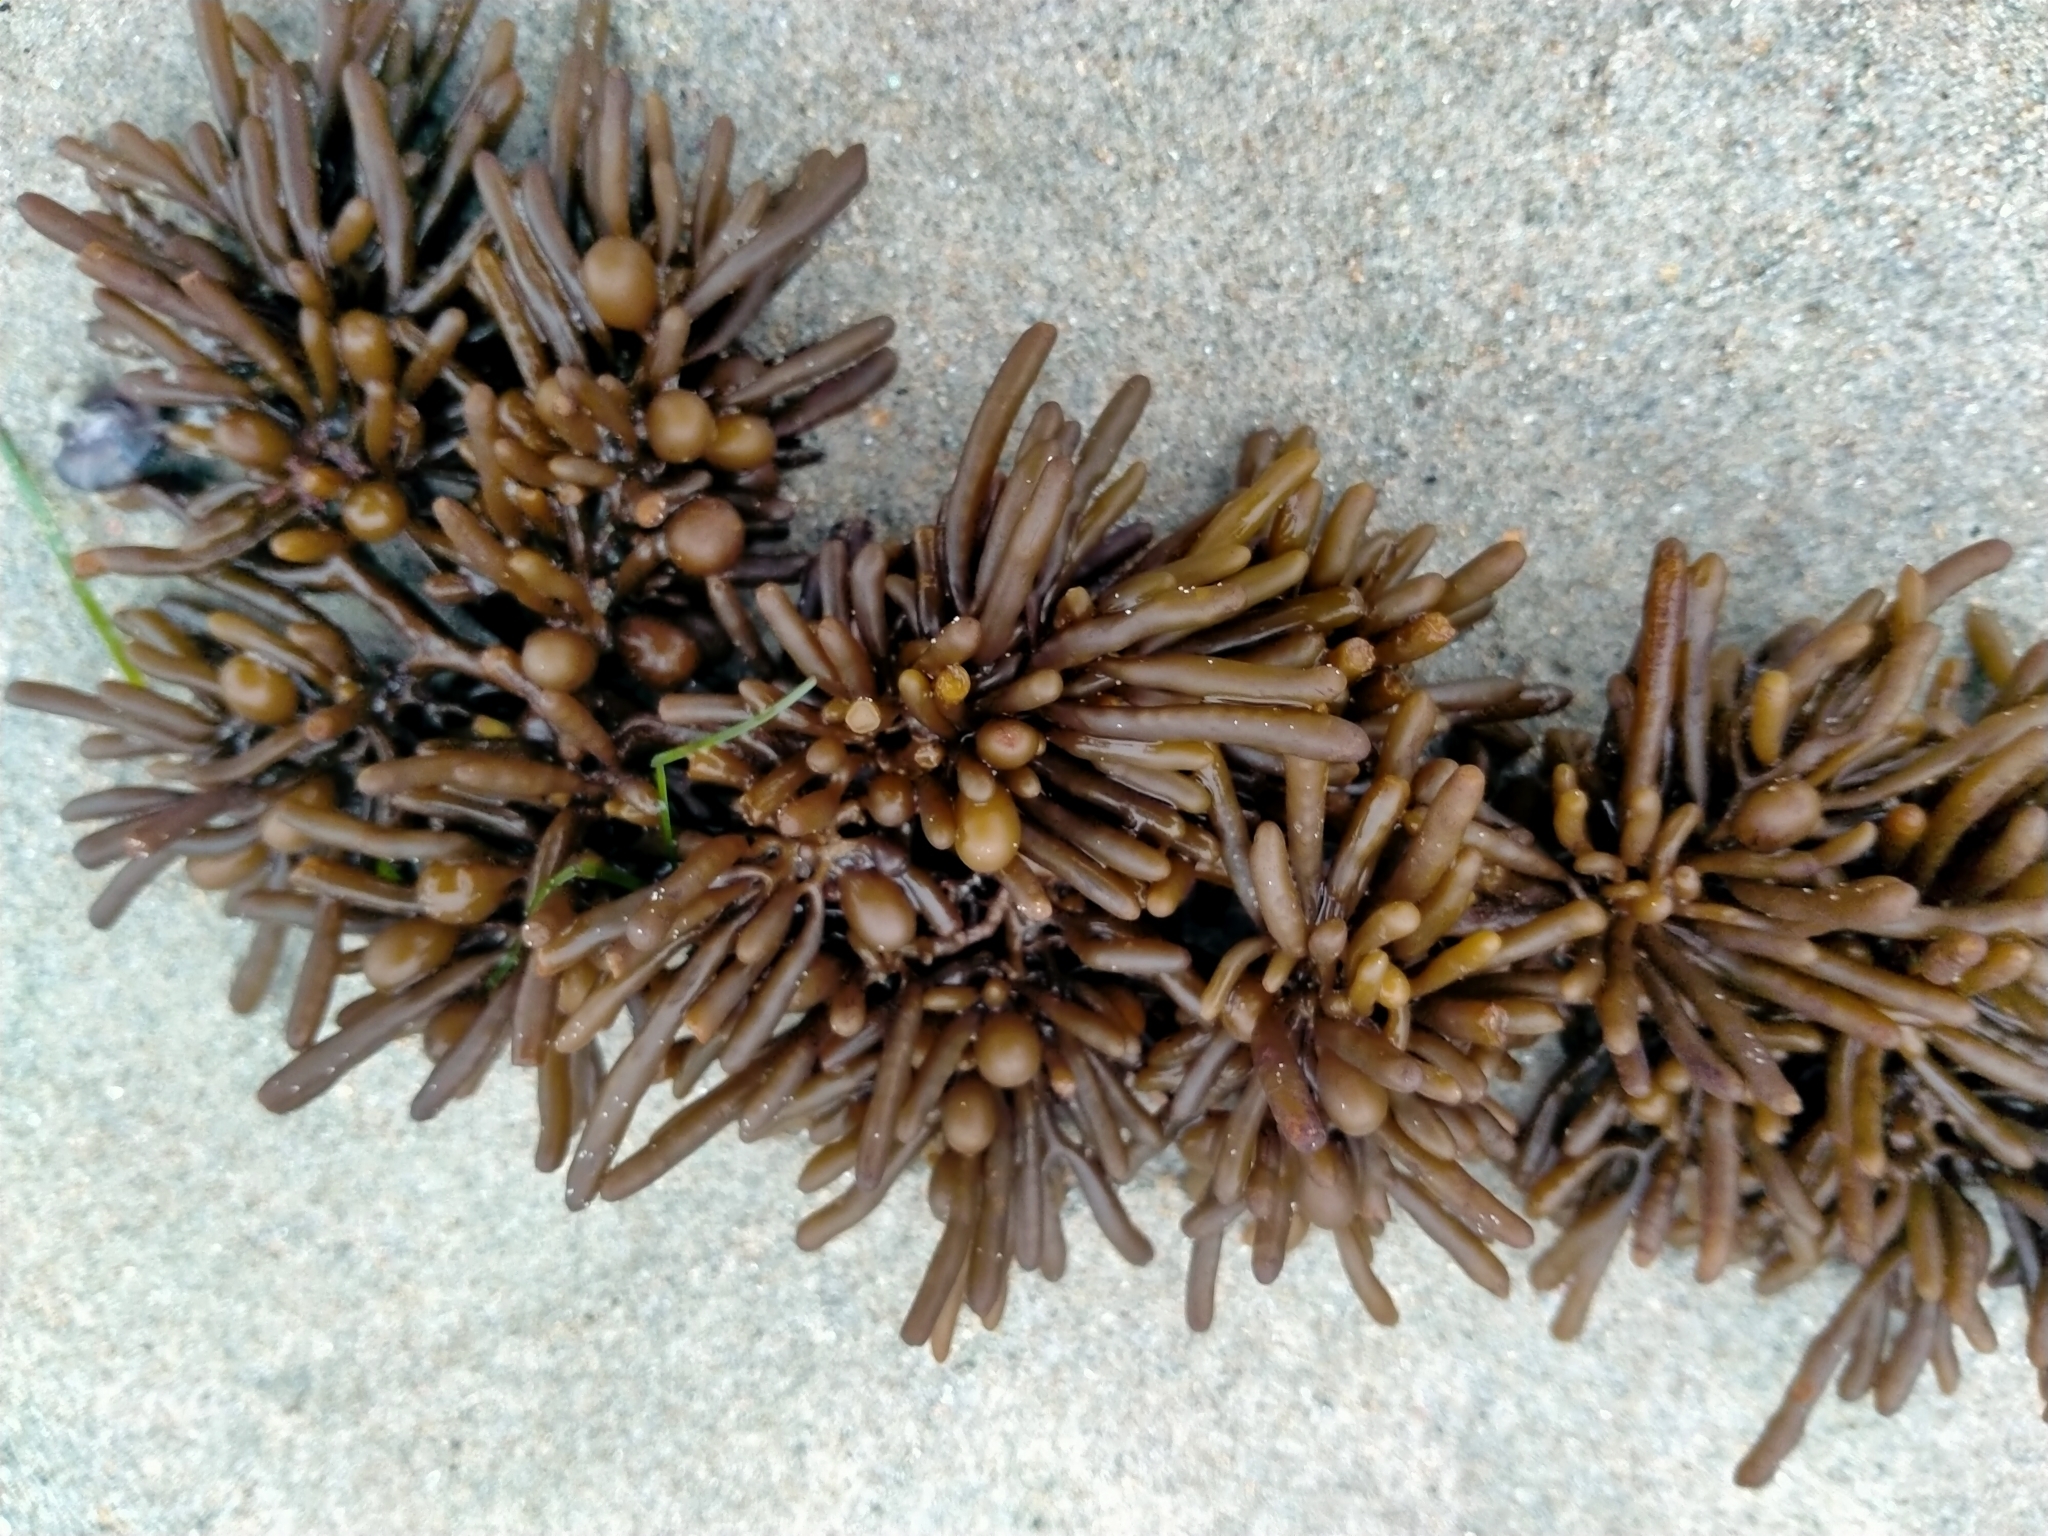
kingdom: Chromista
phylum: Ochrophyta
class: Phaeophyceae
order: Fucales
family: Sargassaceae
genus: Cystophora
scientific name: Cystophora torulosa
